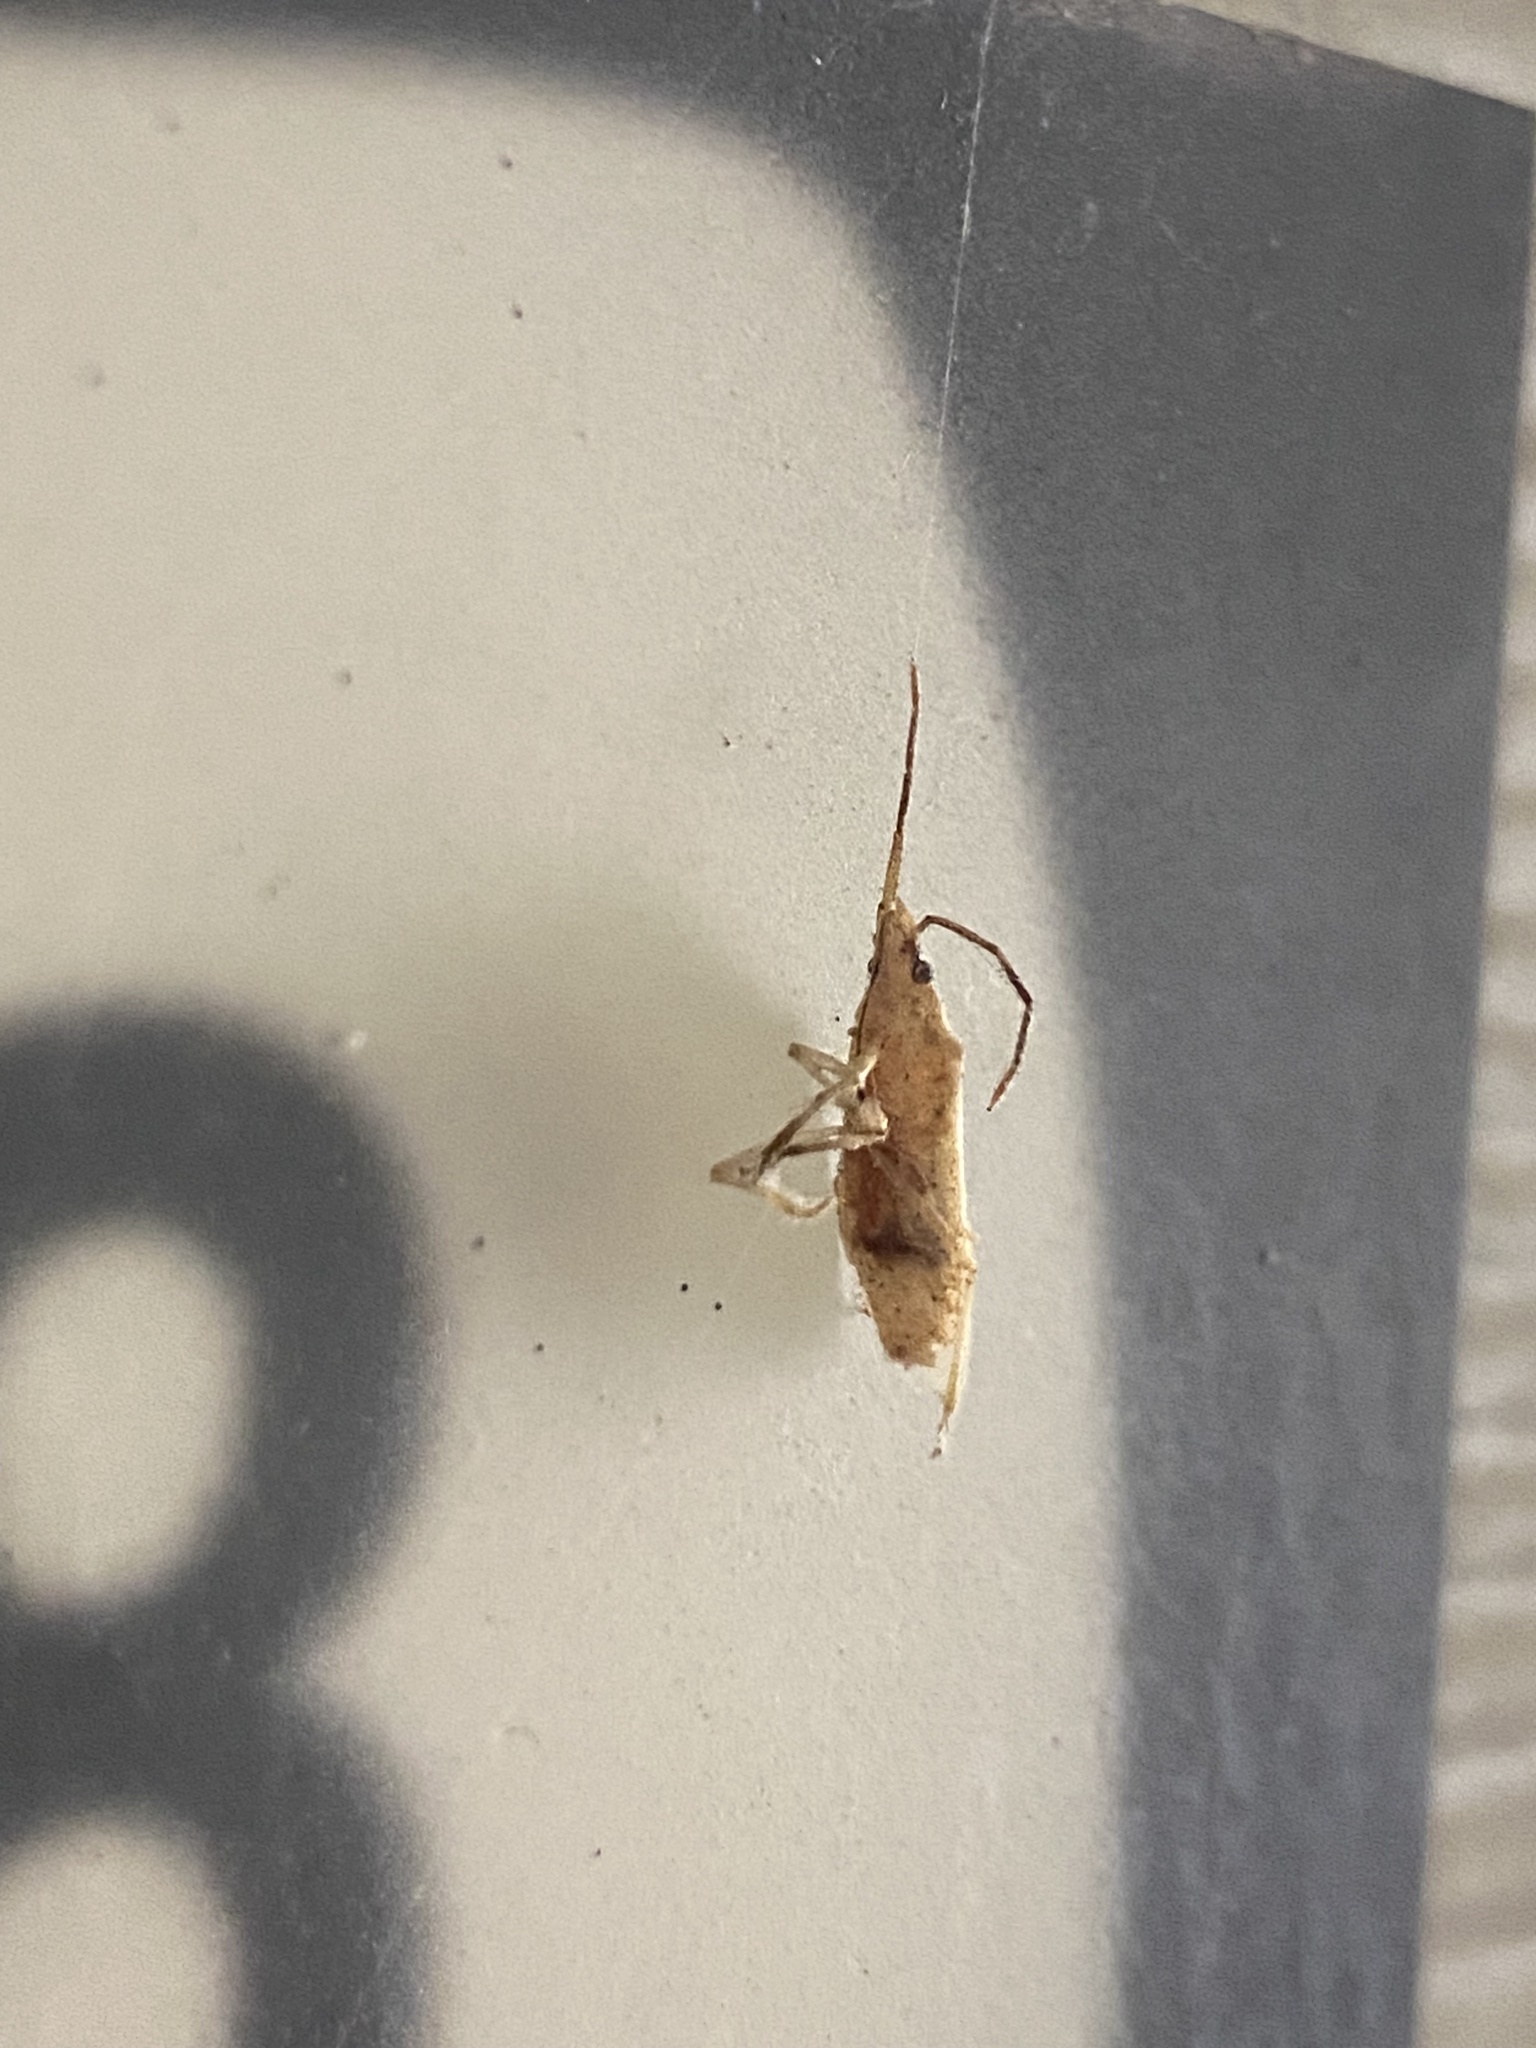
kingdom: Animalia
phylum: Arthropoda
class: Insecta
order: Hemiptera
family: Pentatomidae
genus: Mecidea
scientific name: Mecidea
